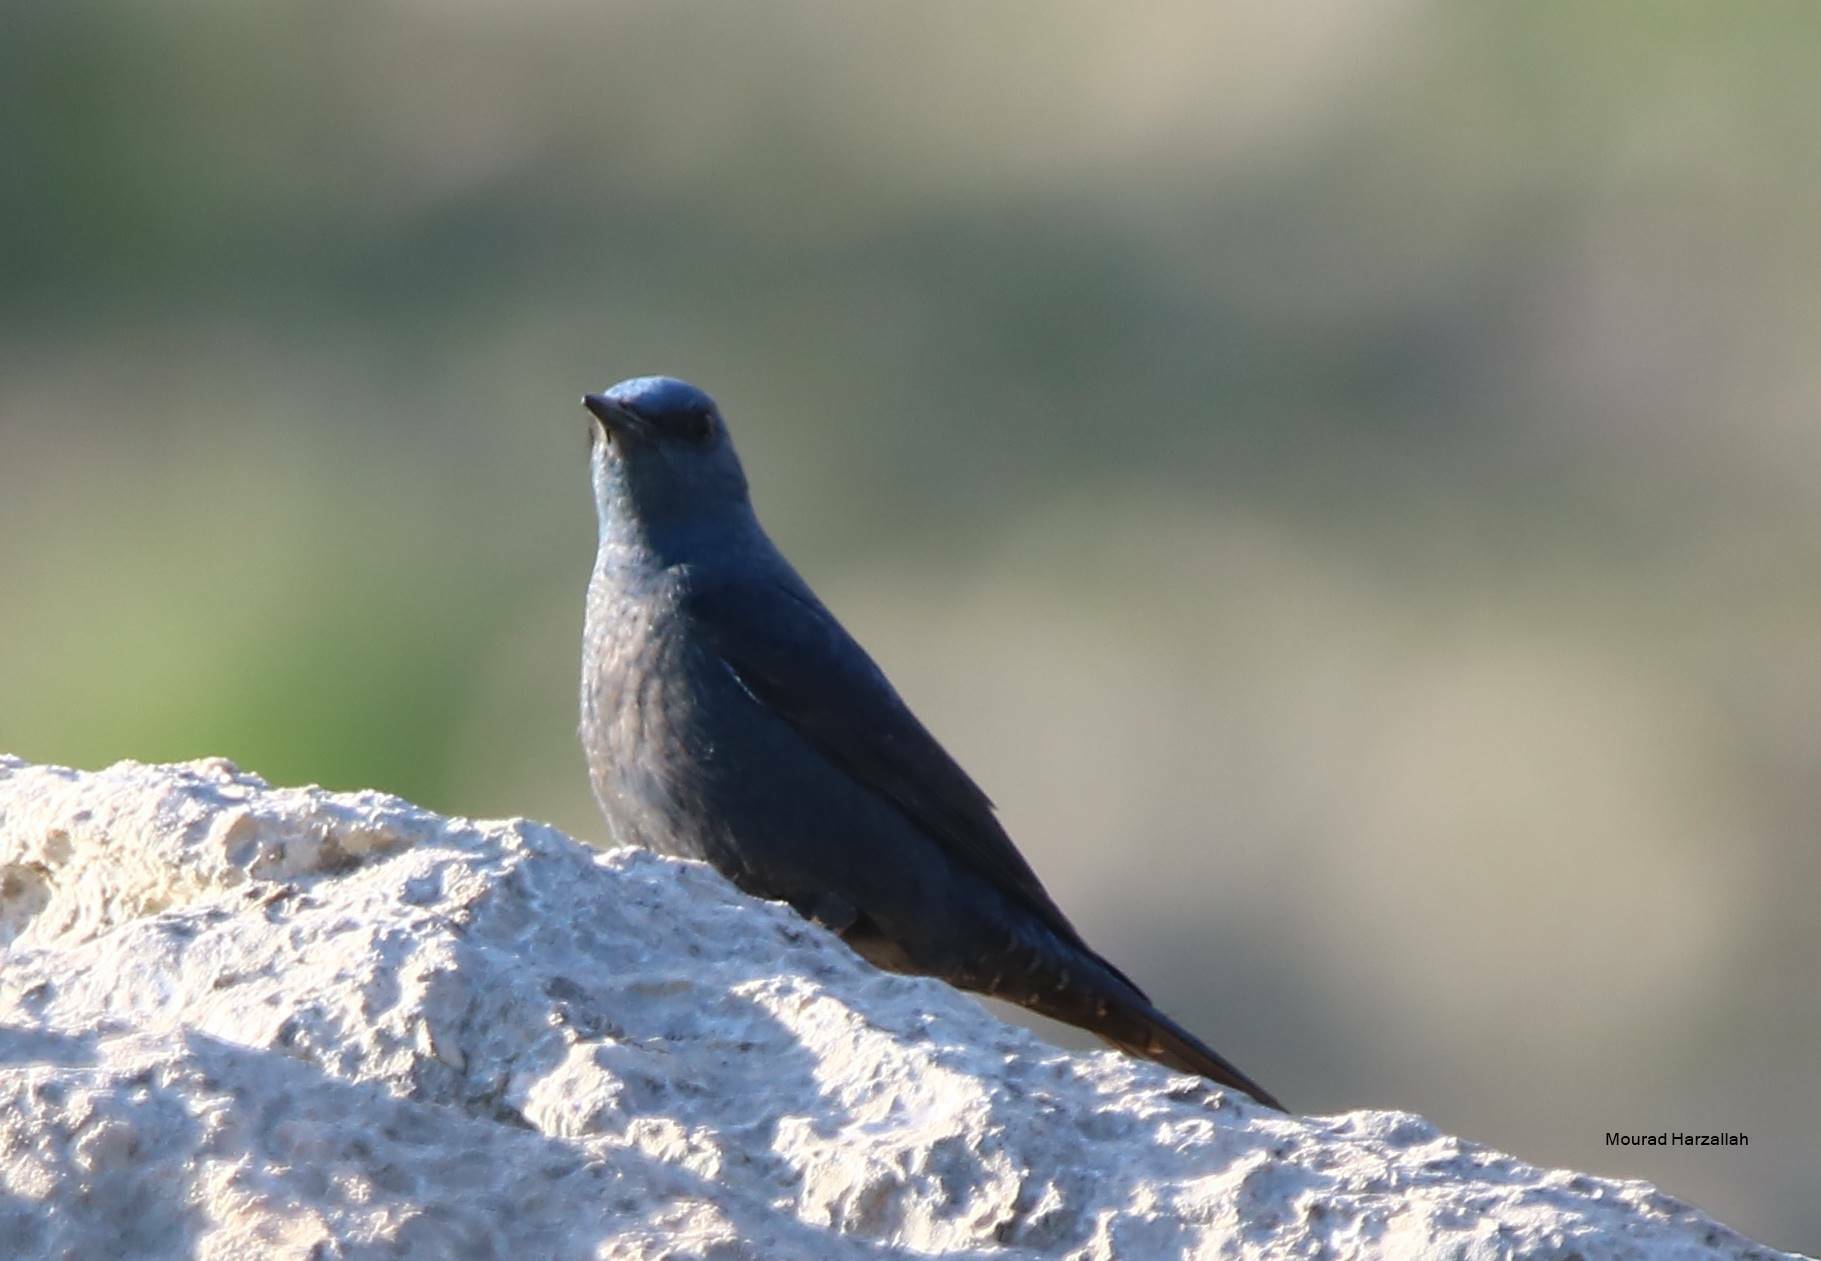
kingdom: Animalia
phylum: Chordata
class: Aves
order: Passeriformes
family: Muscicapidae
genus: Monticola
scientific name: Monticola solitarius
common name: Blue rock thrush
